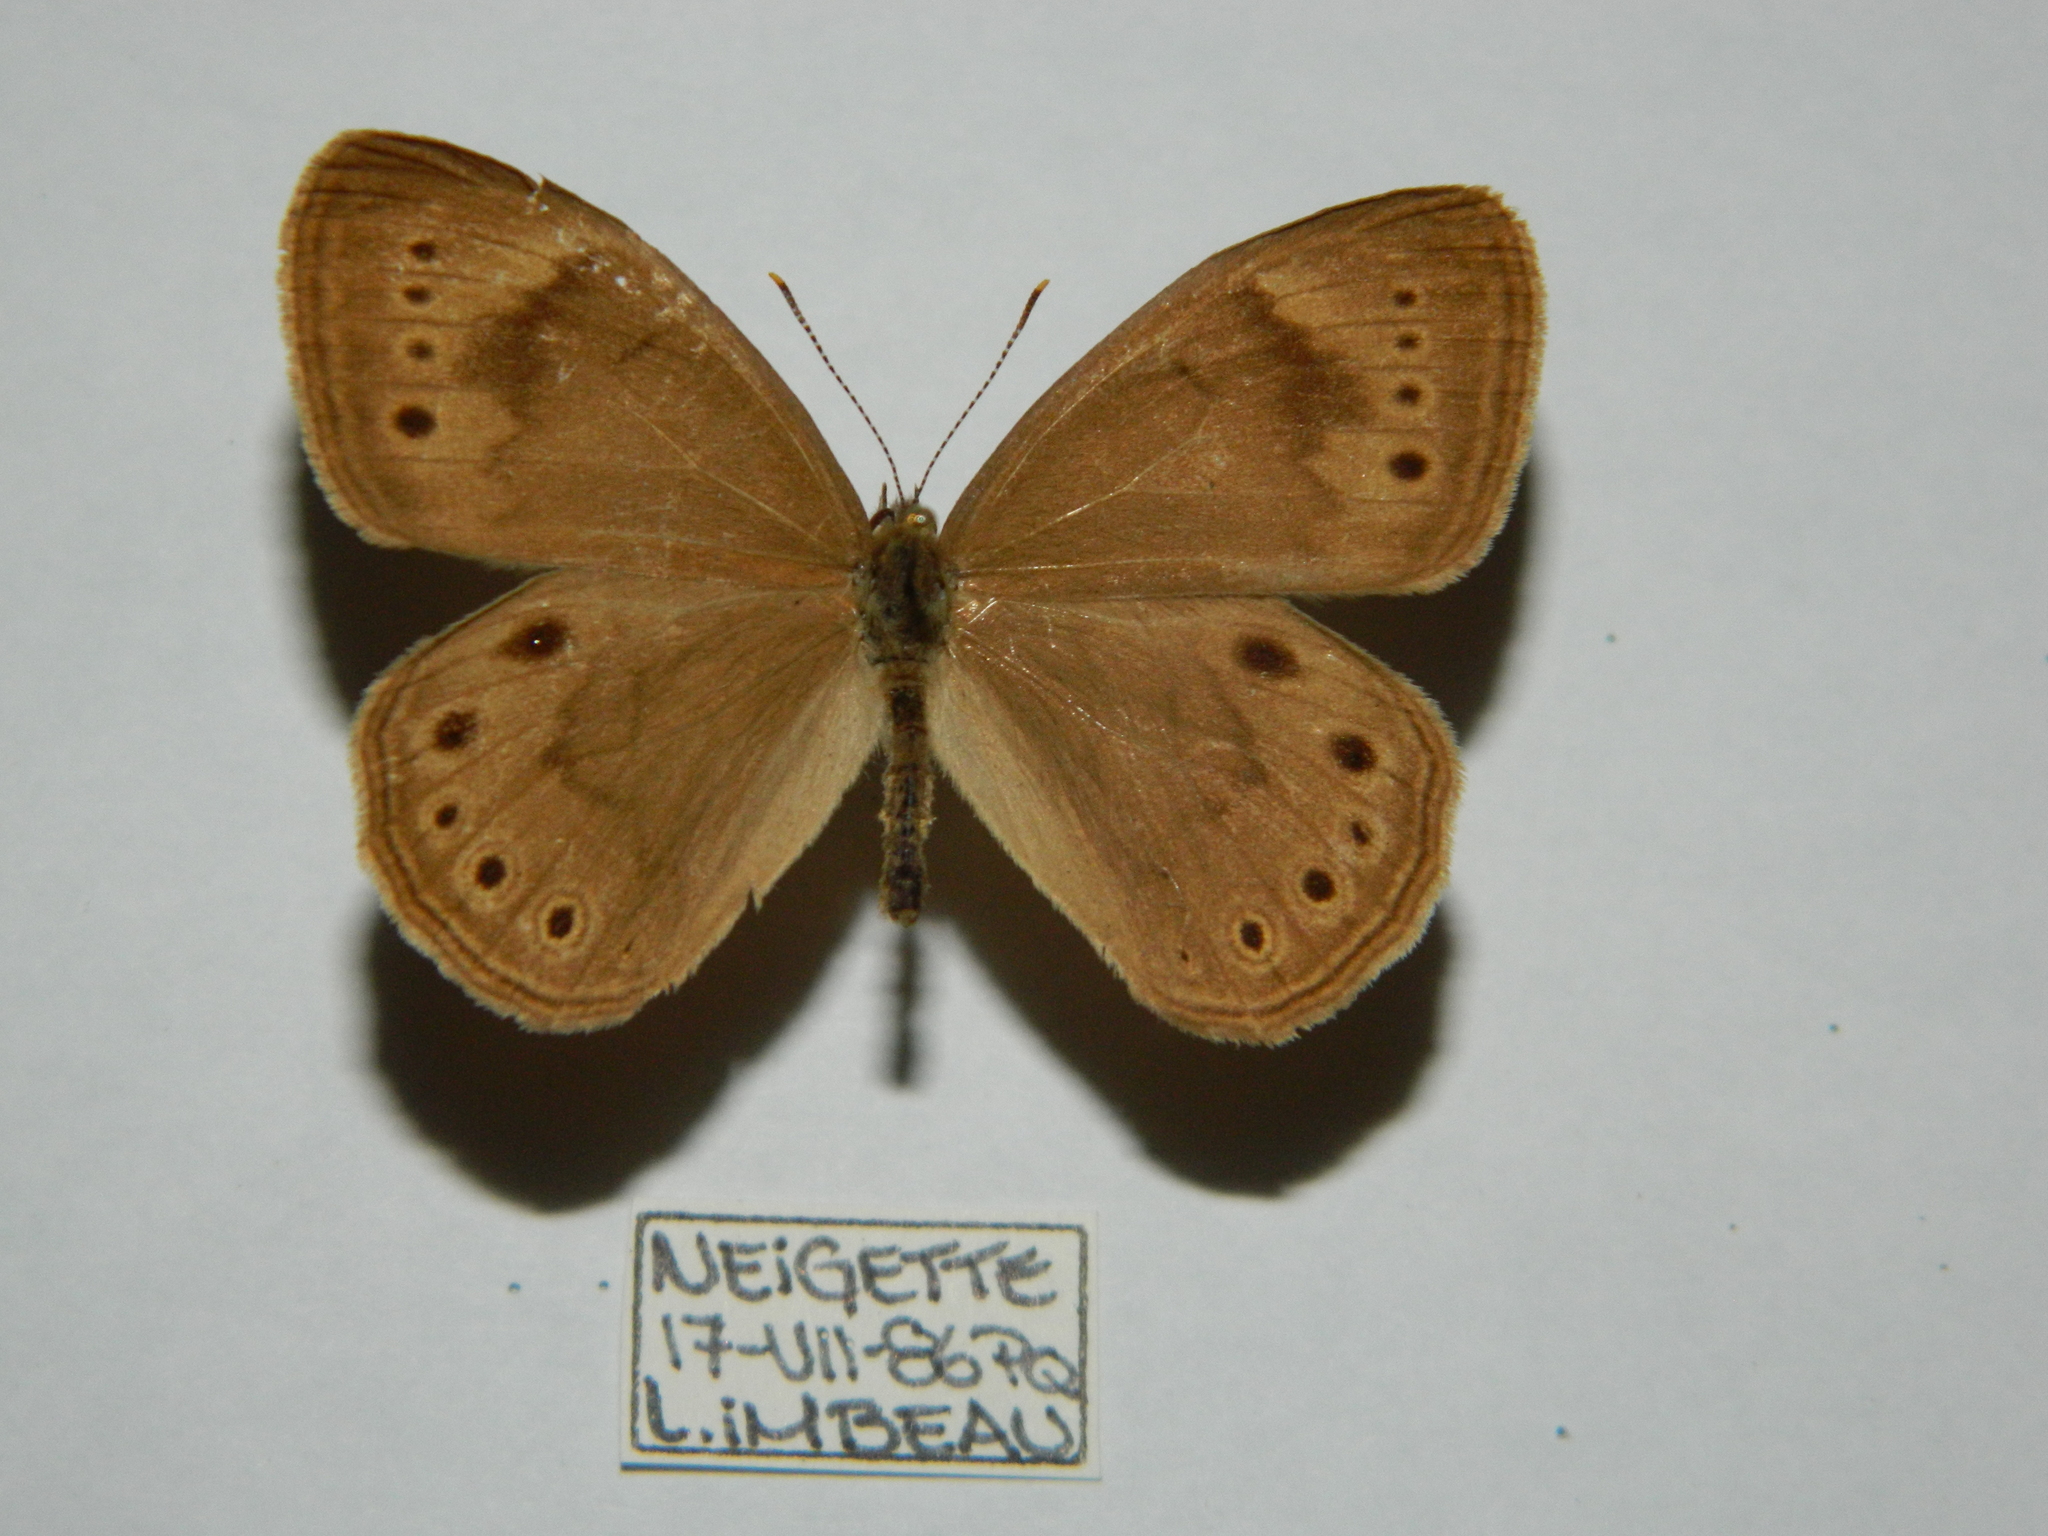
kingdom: Animalia
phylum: Arthropoda
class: Insecta
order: Lepidoptera
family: Nymphalidae
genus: Lethe
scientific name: Lethe eurydice
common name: Eyed brown
